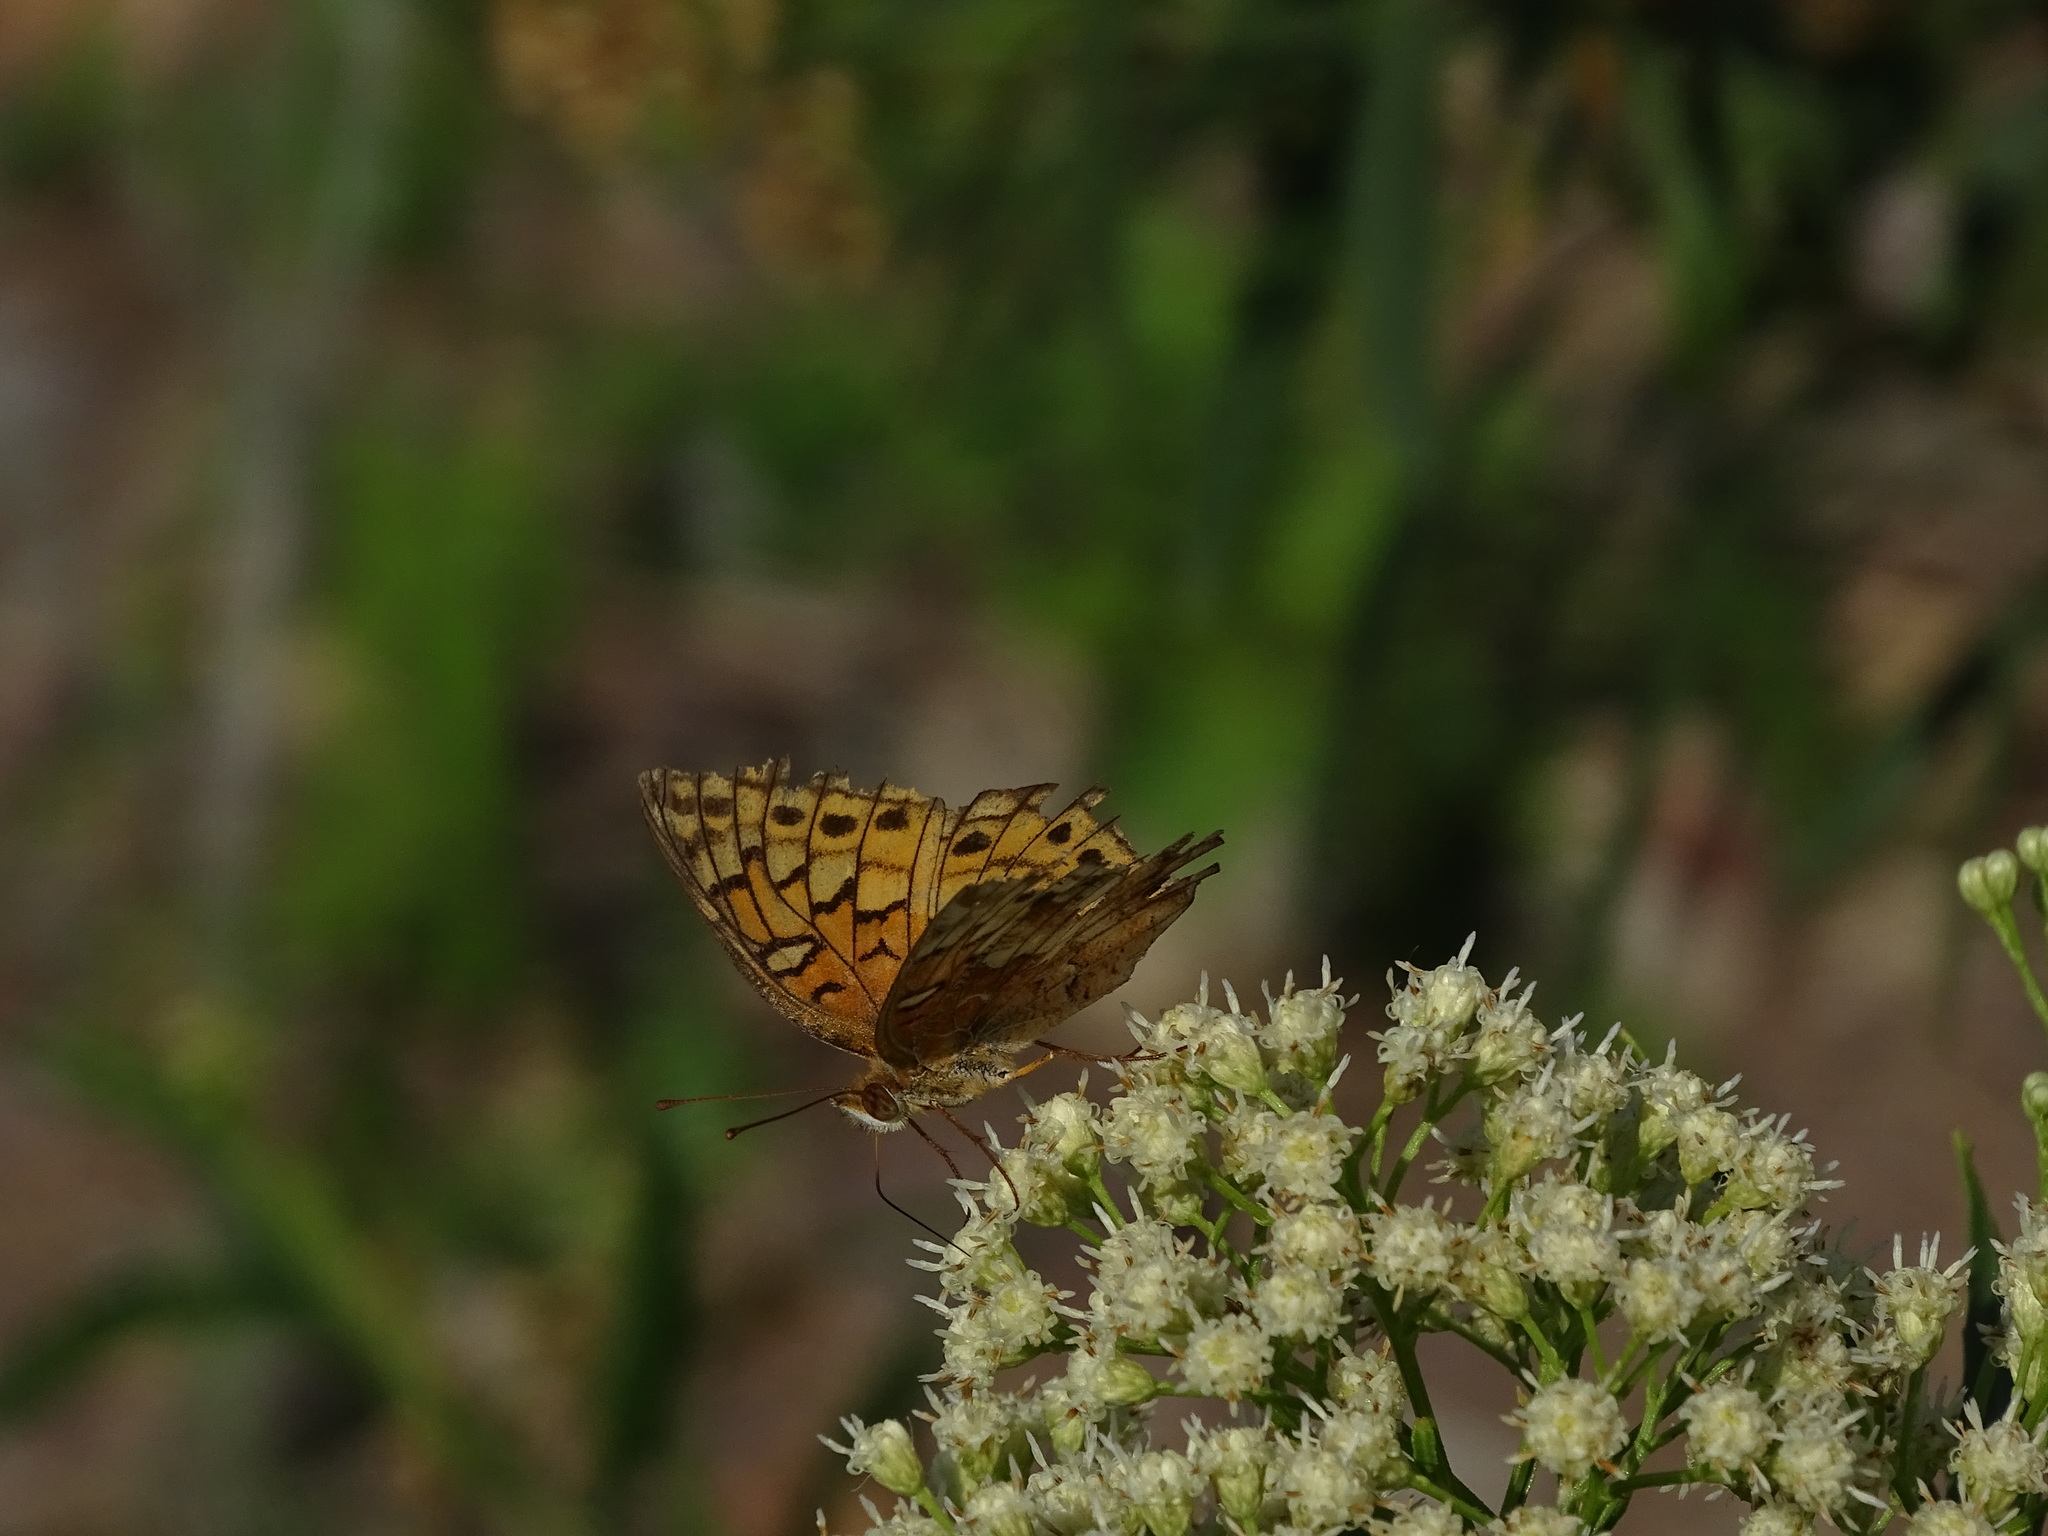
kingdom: Animalia
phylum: Arthropoda
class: Insecta
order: Lepidoptera
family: Nymphalidae
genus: Euptoieta
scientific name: Euptoieta claudia
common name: Variegated fritillary
